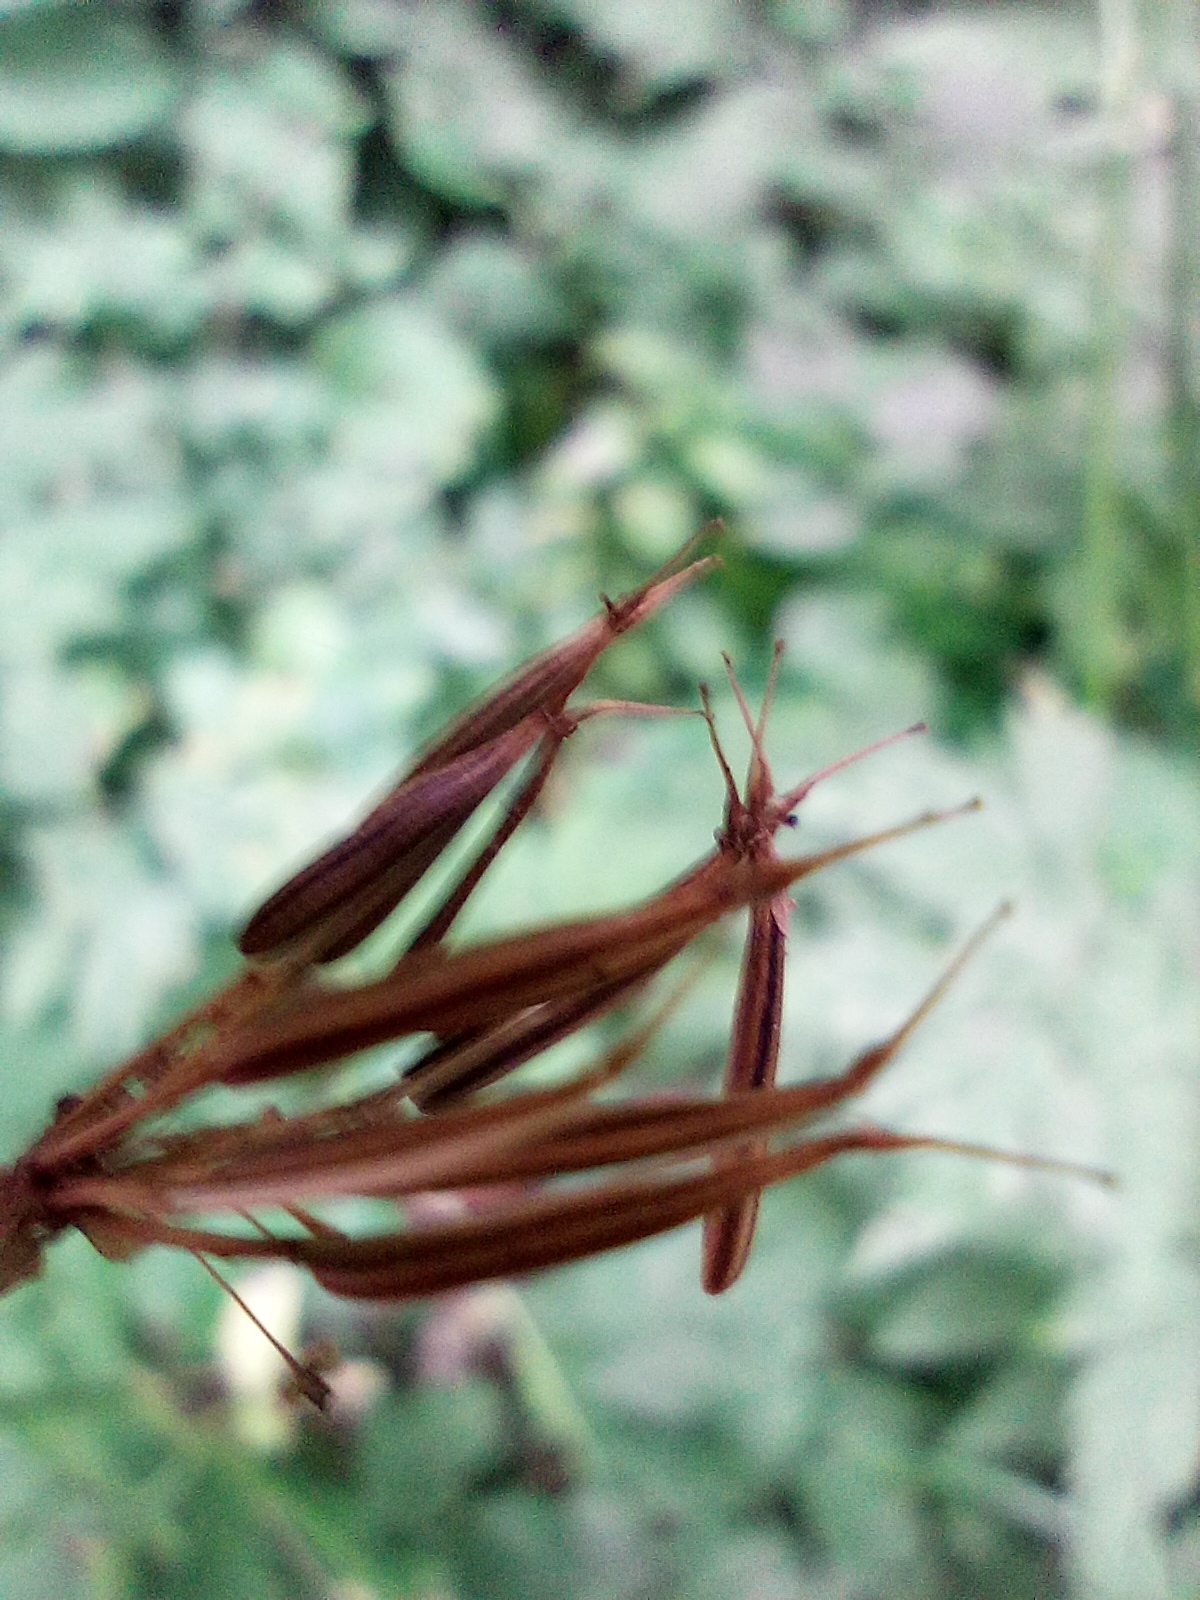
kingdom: Plantae
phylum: Tracheophyta
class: Magnoliopsida
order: Apiales
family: Apiaceae
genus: Chaerophyllum
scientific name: Chaerophyllum hirsutum
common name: Hairy chervil
